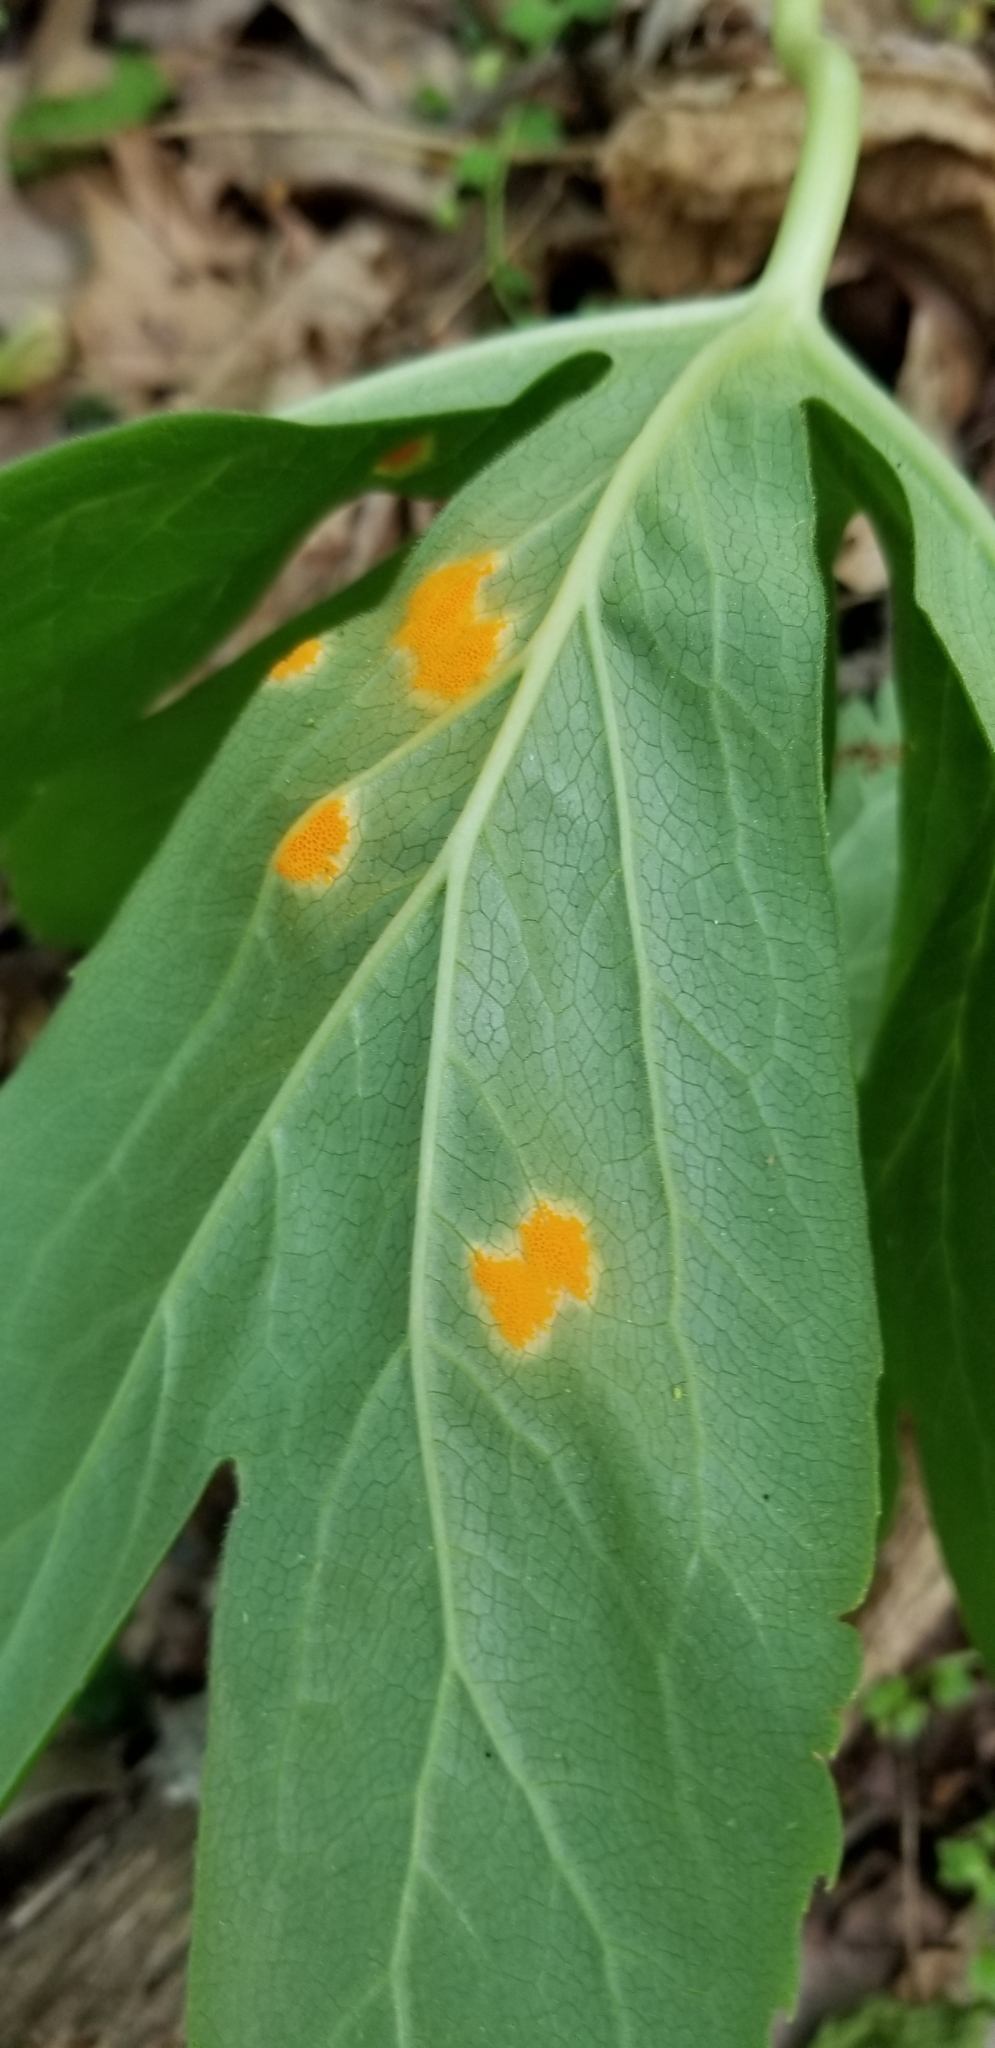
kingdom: Fungi
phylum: Basidiomycota
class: Pucciniomycetes
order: Pucciniales
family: Pucciniaceae
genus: Puccinia
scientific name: Puccinia podophylli
